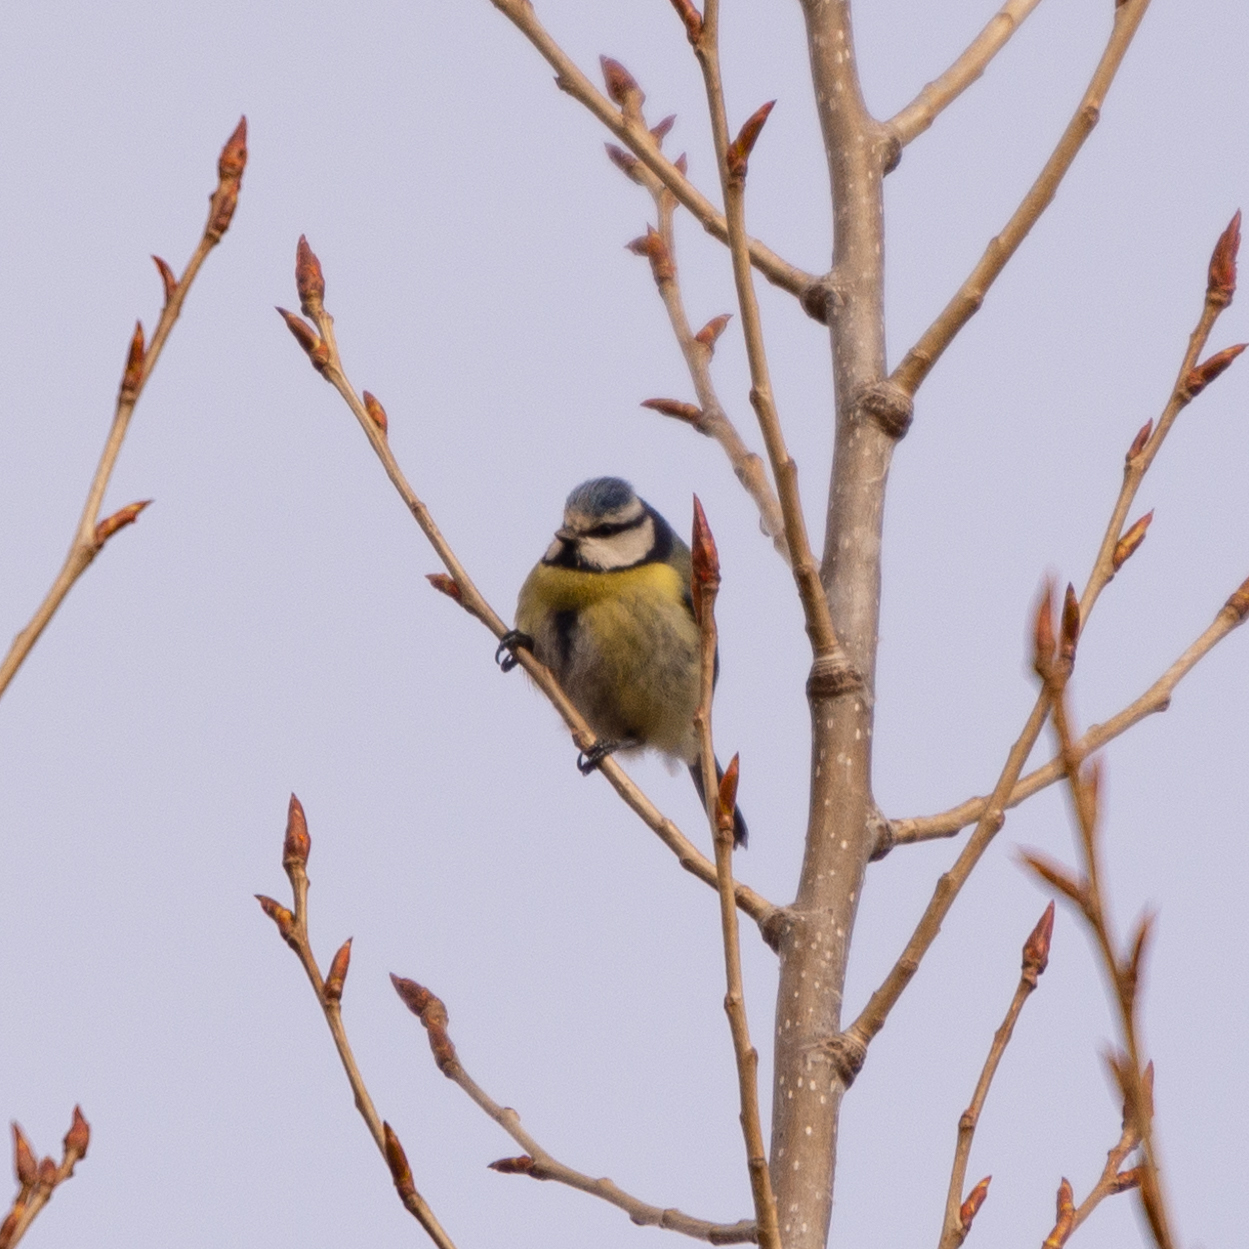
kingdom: Animalia
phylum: Chordata
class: Aves
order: Passeriformes
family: Paridae
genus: Cyanistes
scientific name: Cyanistes caeruleus
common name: Eurasian blue tit
